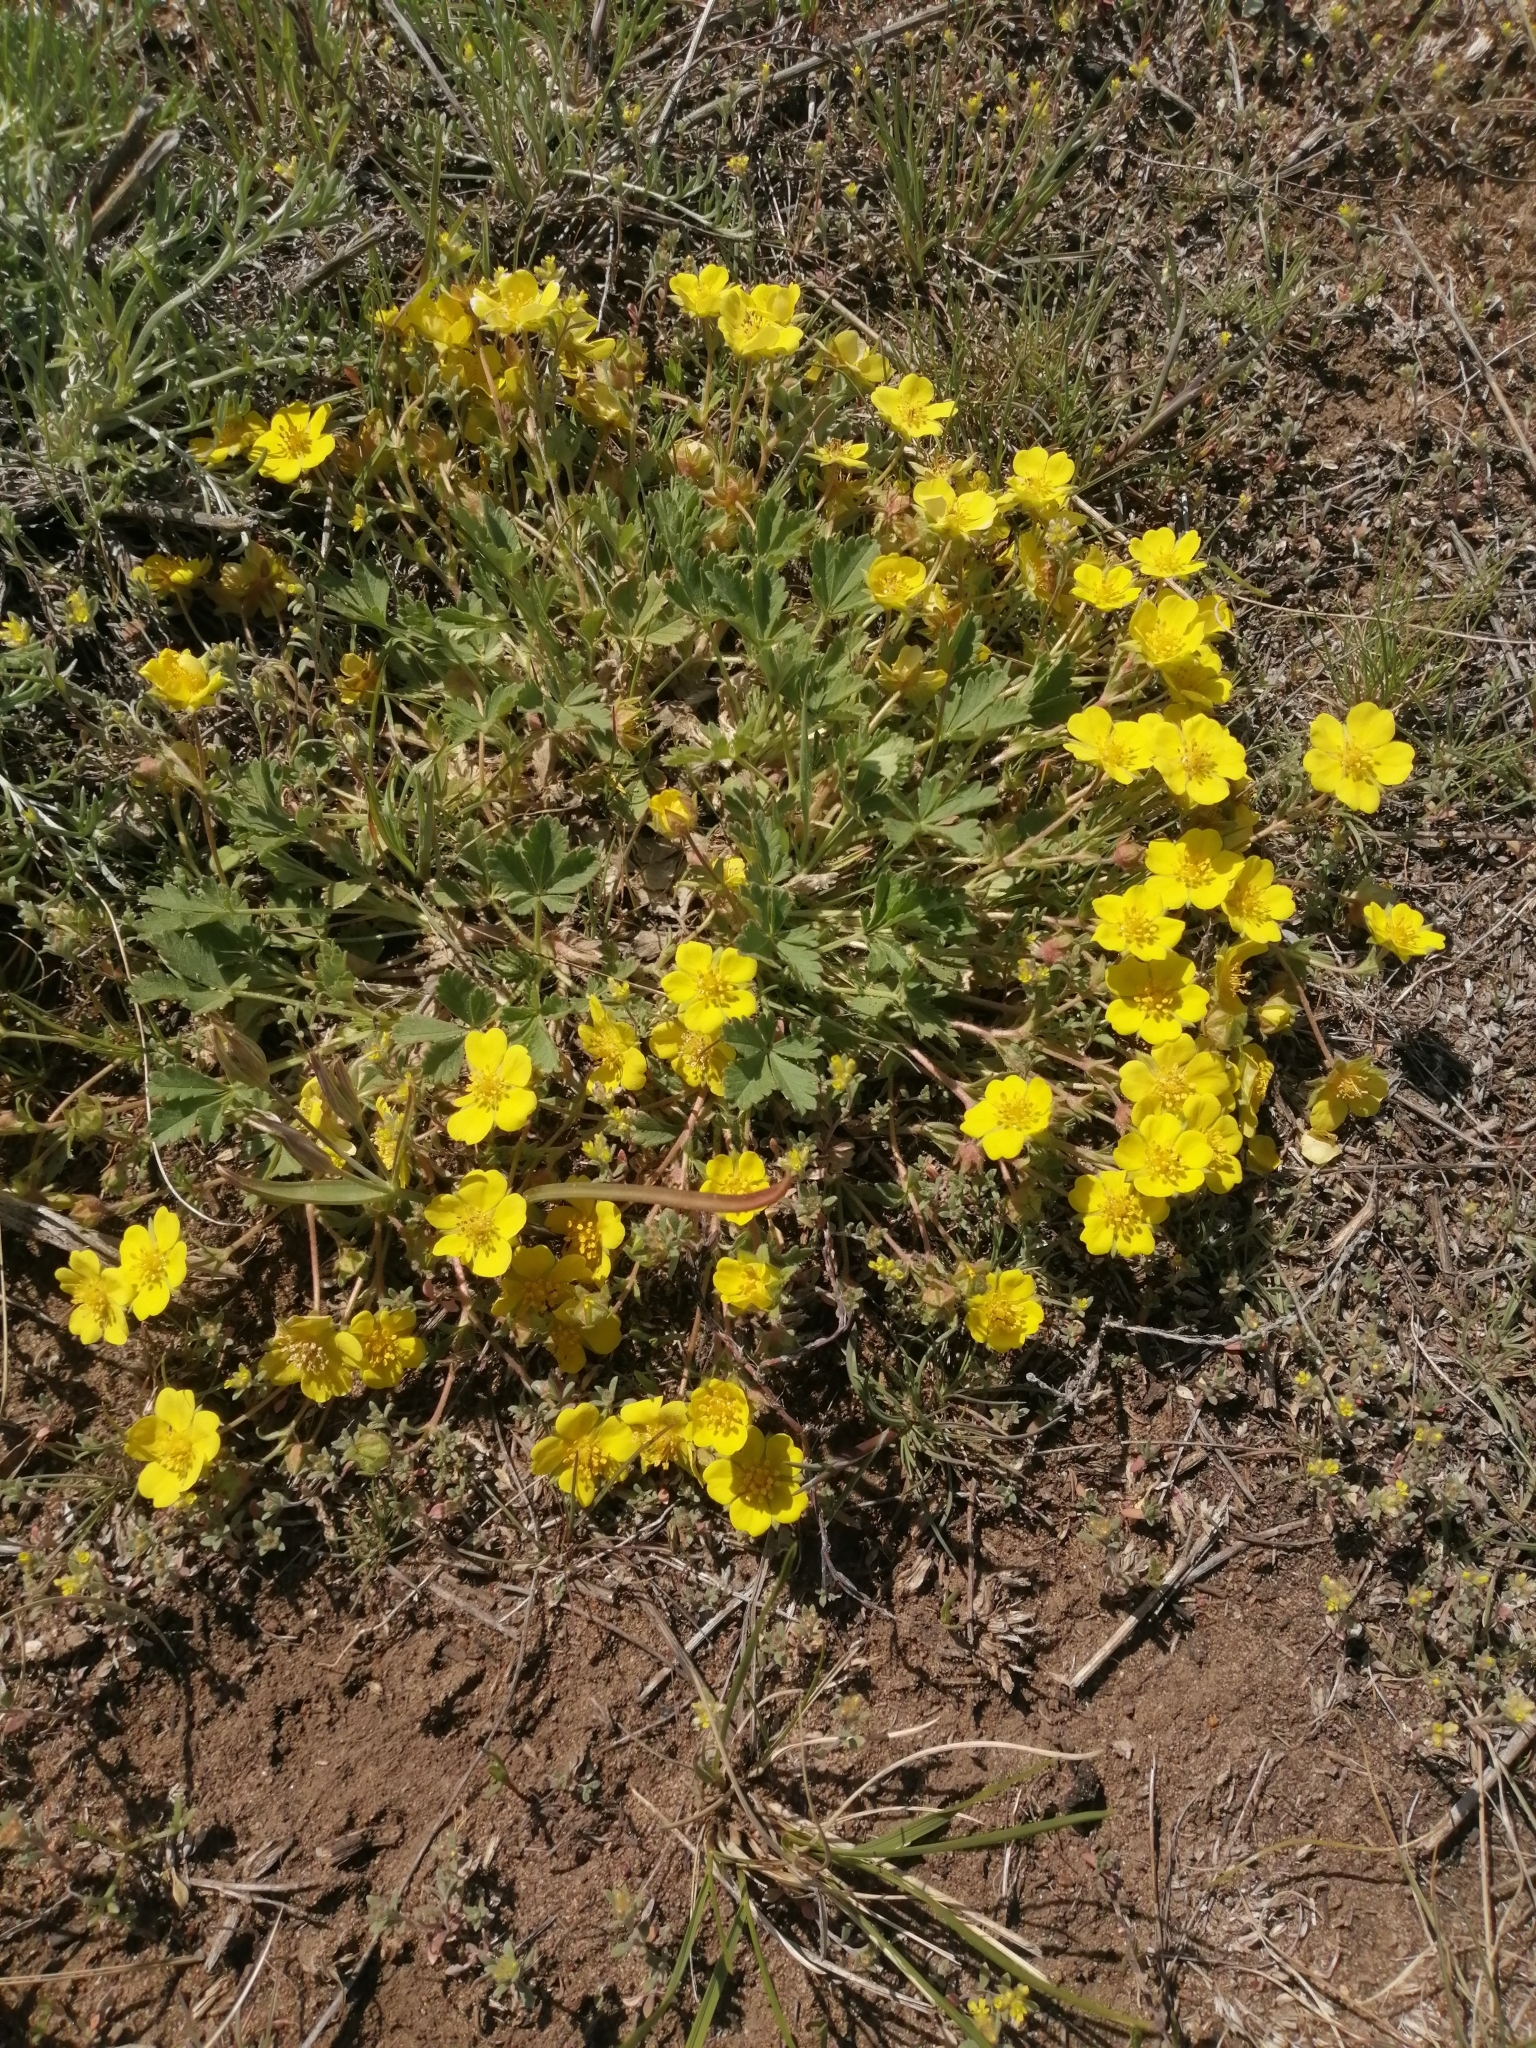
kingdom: Plantae
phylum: Tracheophyta
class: Magnoliopsida
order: Rosales
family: Rosaceae
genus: Potentilla
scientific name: Potentilla incana
